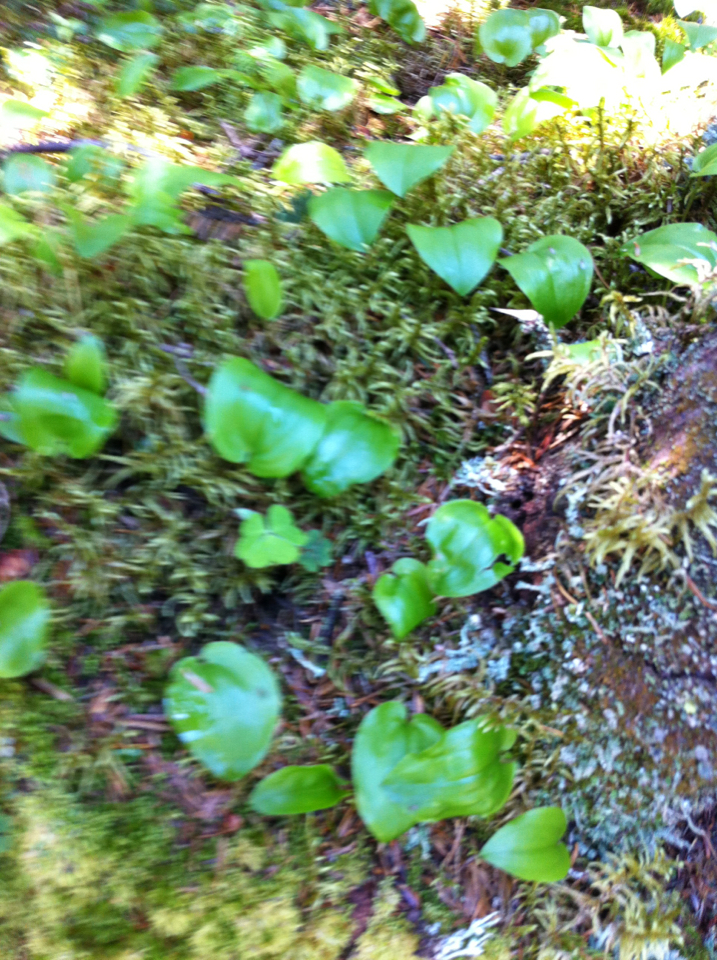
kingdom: Plantae
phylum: Tracheophyta
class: Liliopsida
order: Asparagales
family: Asparagaceae
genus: Maianthemum
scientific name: Maianthemum canadense
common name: False lily-of-the-valley
